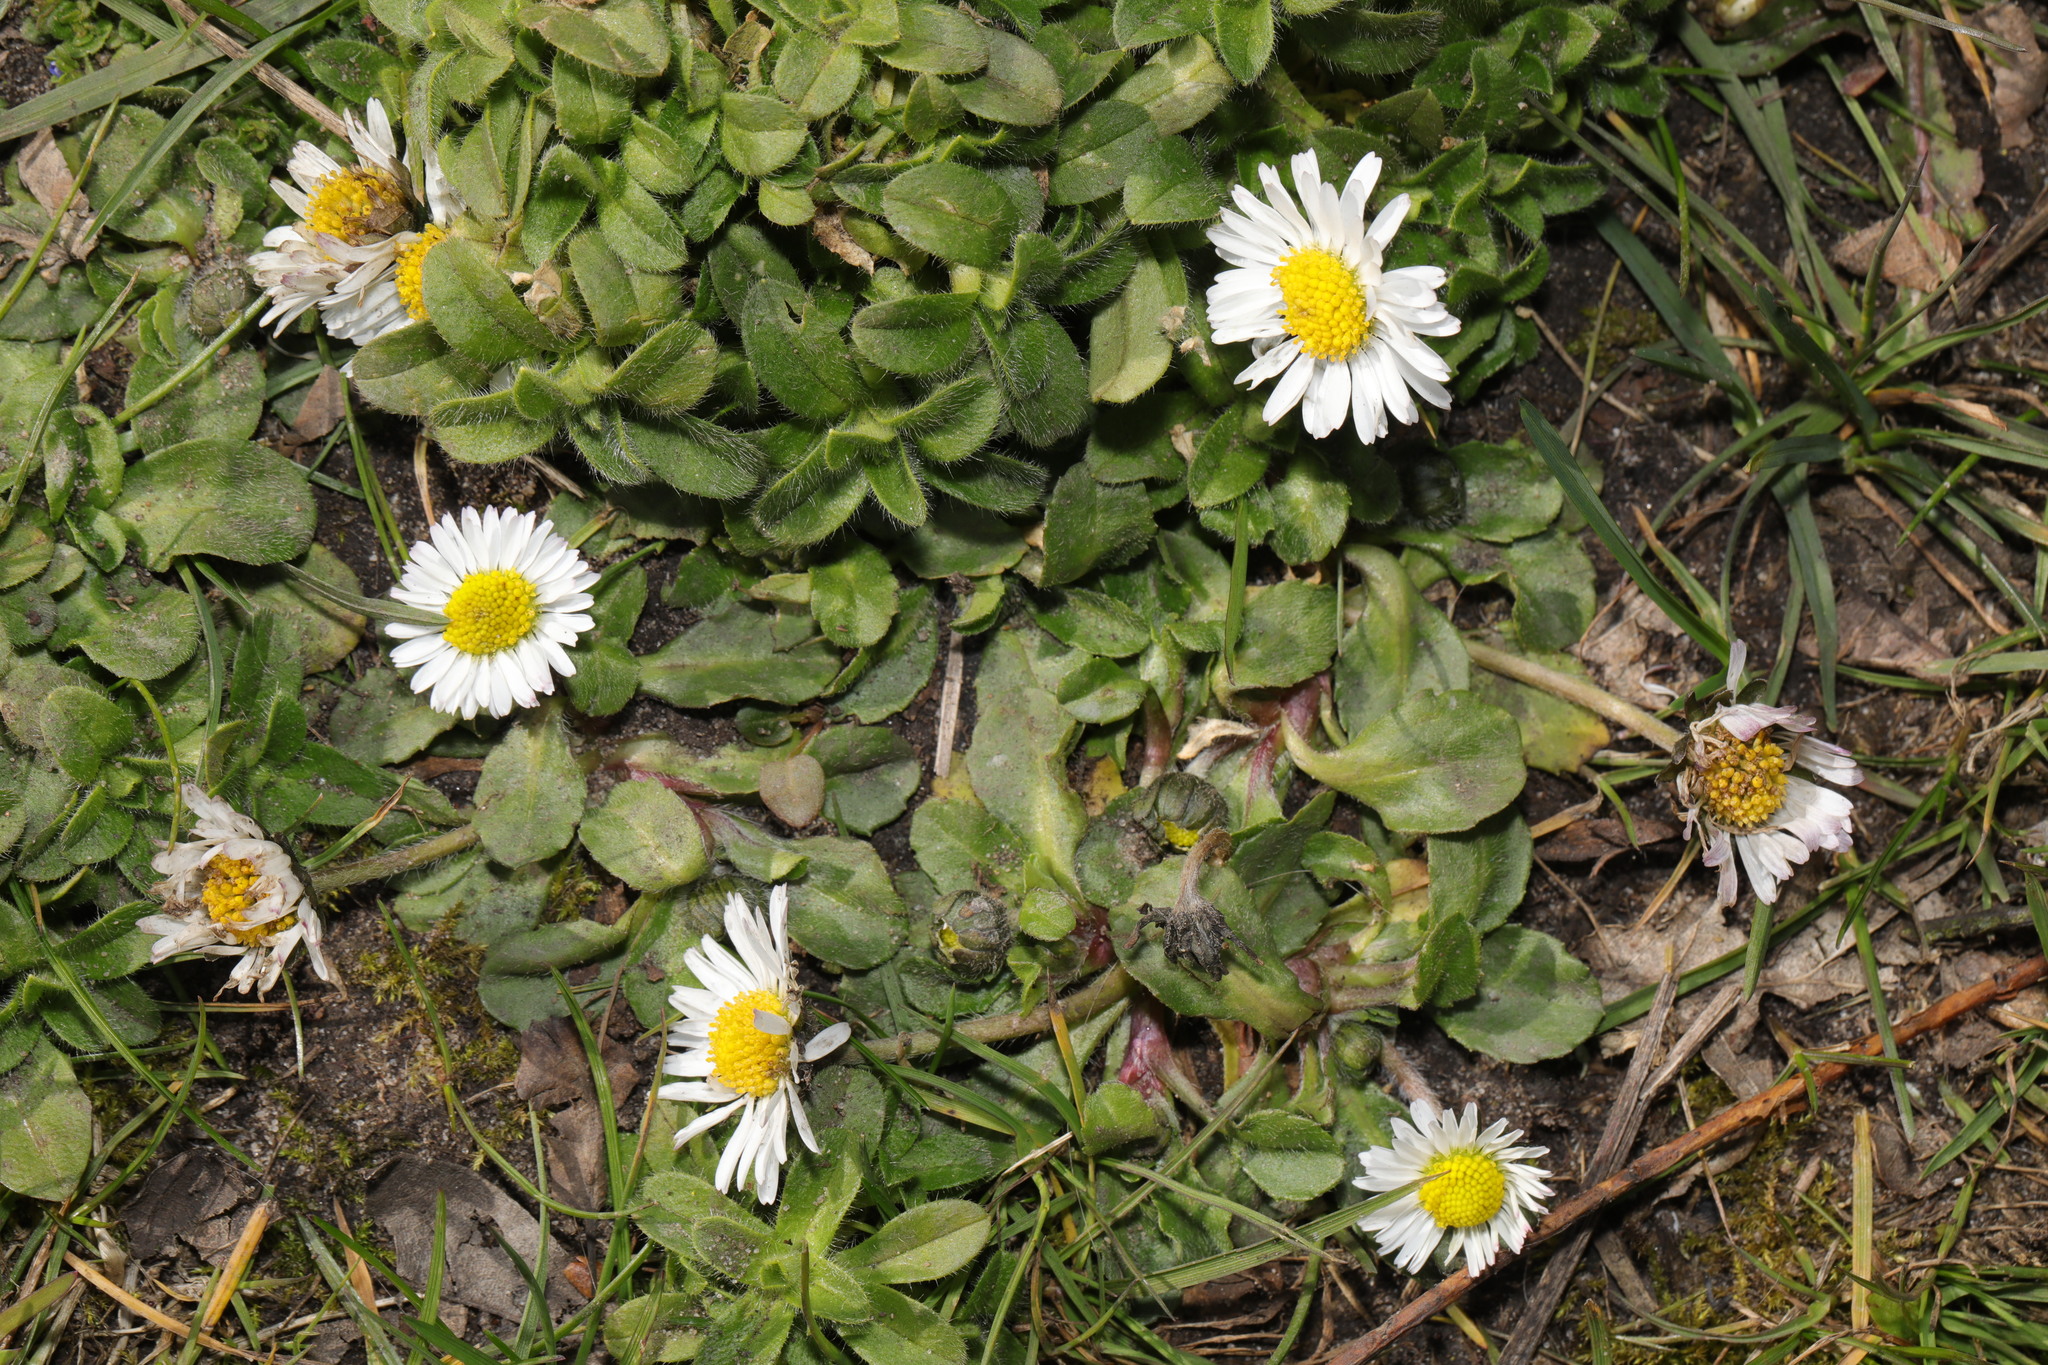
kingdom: Plantae
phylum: Tracheophyta
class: Magnoliopsida
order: Asterales
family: Asteraceae
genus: Bellis
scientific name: Bellis perennis
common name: Lawndaisy
